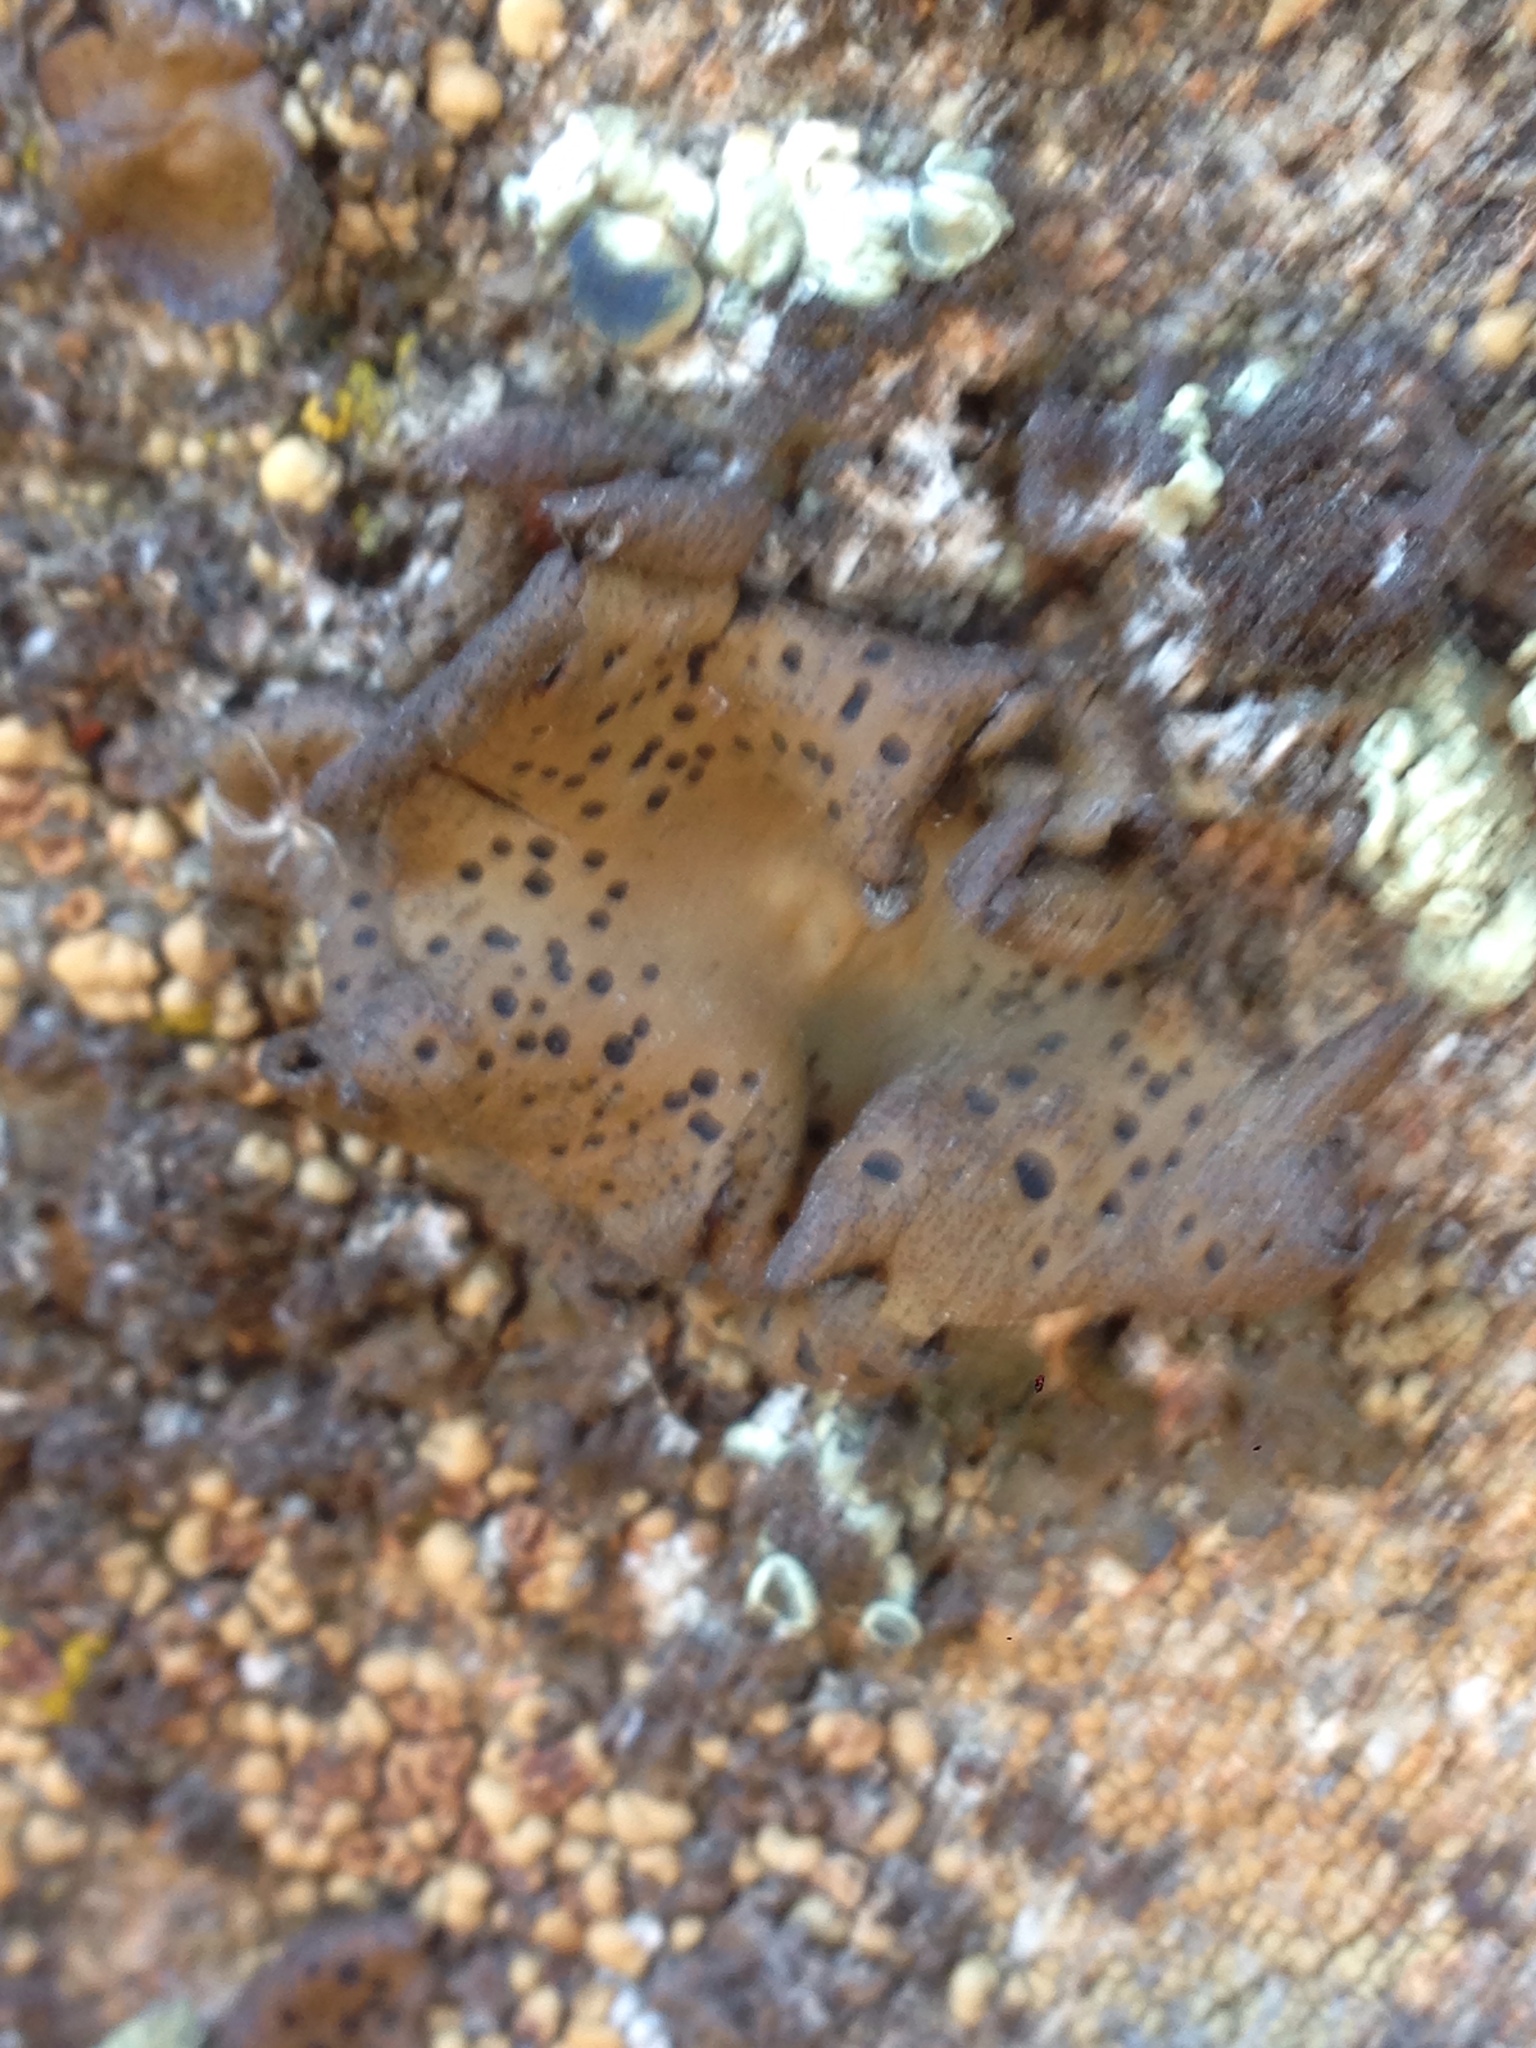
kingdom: Fungi
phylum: Ascomycota
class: Lecanoromycetes
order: Umbilicariales
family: Umbilicariaceae
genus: Umbilicaria
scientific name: Umbilicaria phaea
